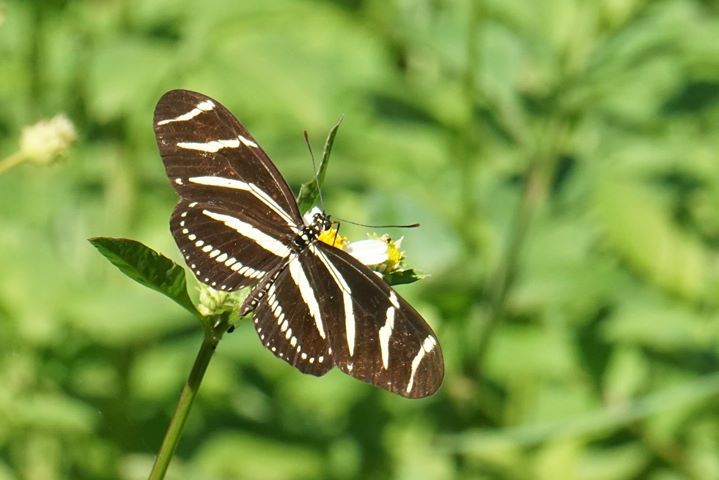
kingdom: Animalia
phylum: Arthropoda
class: Insecta
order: Lepidoptera
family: Nymphalidae
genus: Heliconius
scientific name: Heliconius charithonia
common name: Zebra long wing
